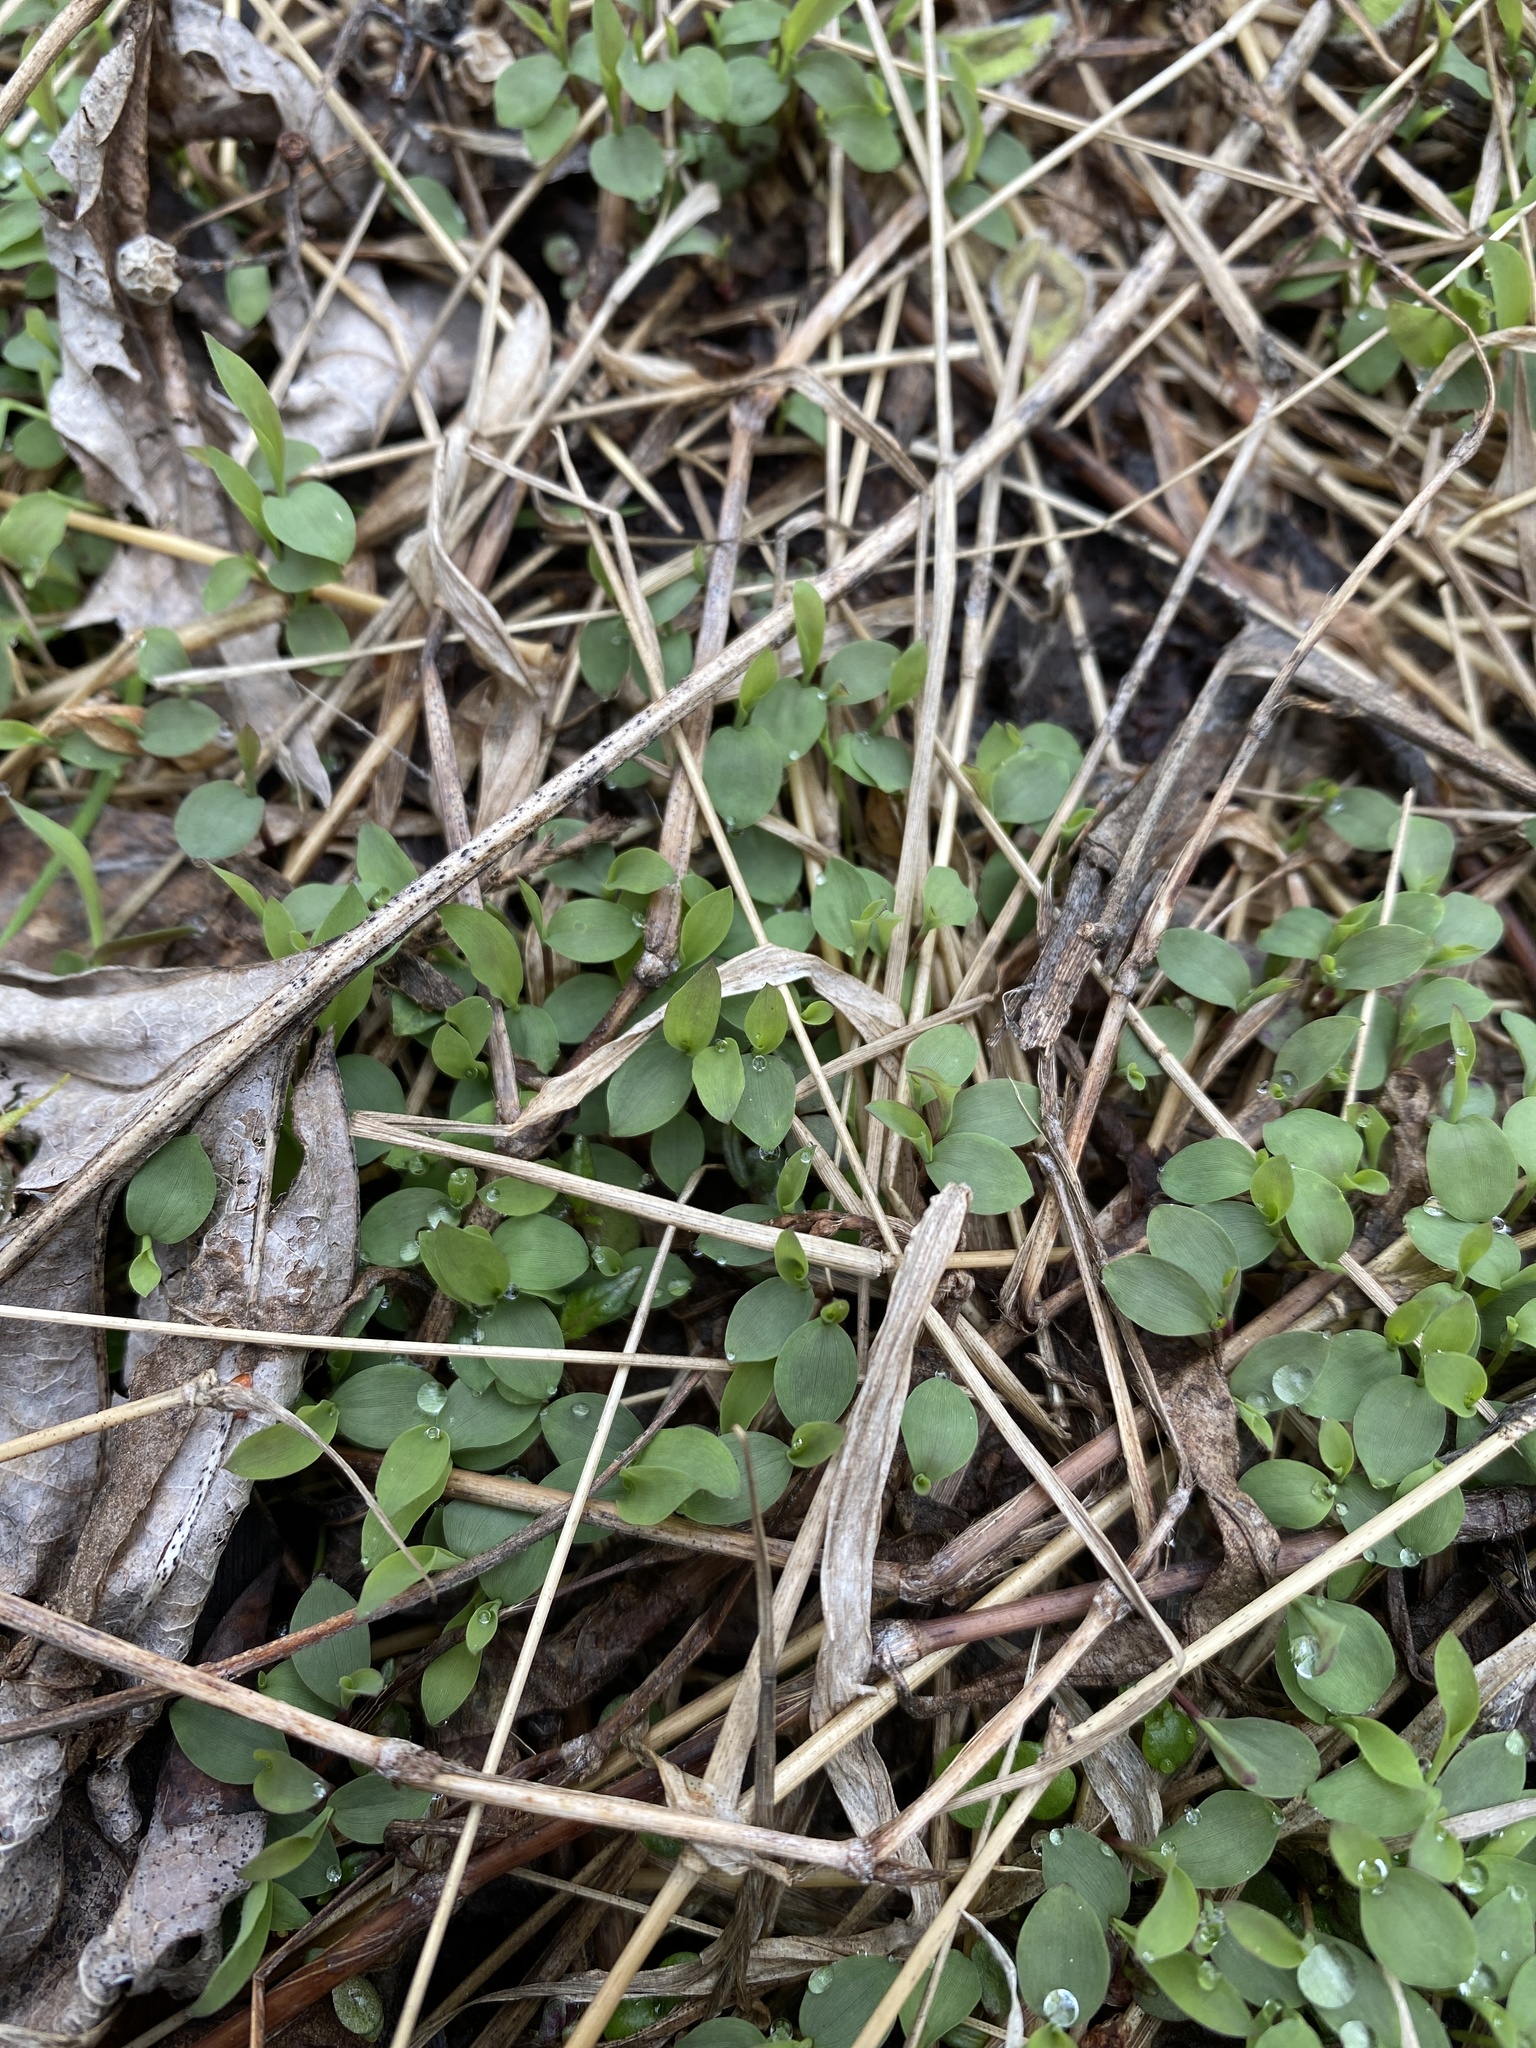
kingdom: Plantae
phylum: Tracheophyta
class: Liliopsida
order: Poales
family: Poaceae
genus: Microstegium
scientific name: Microstegium vimineum
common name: Japanese stiltgrass
